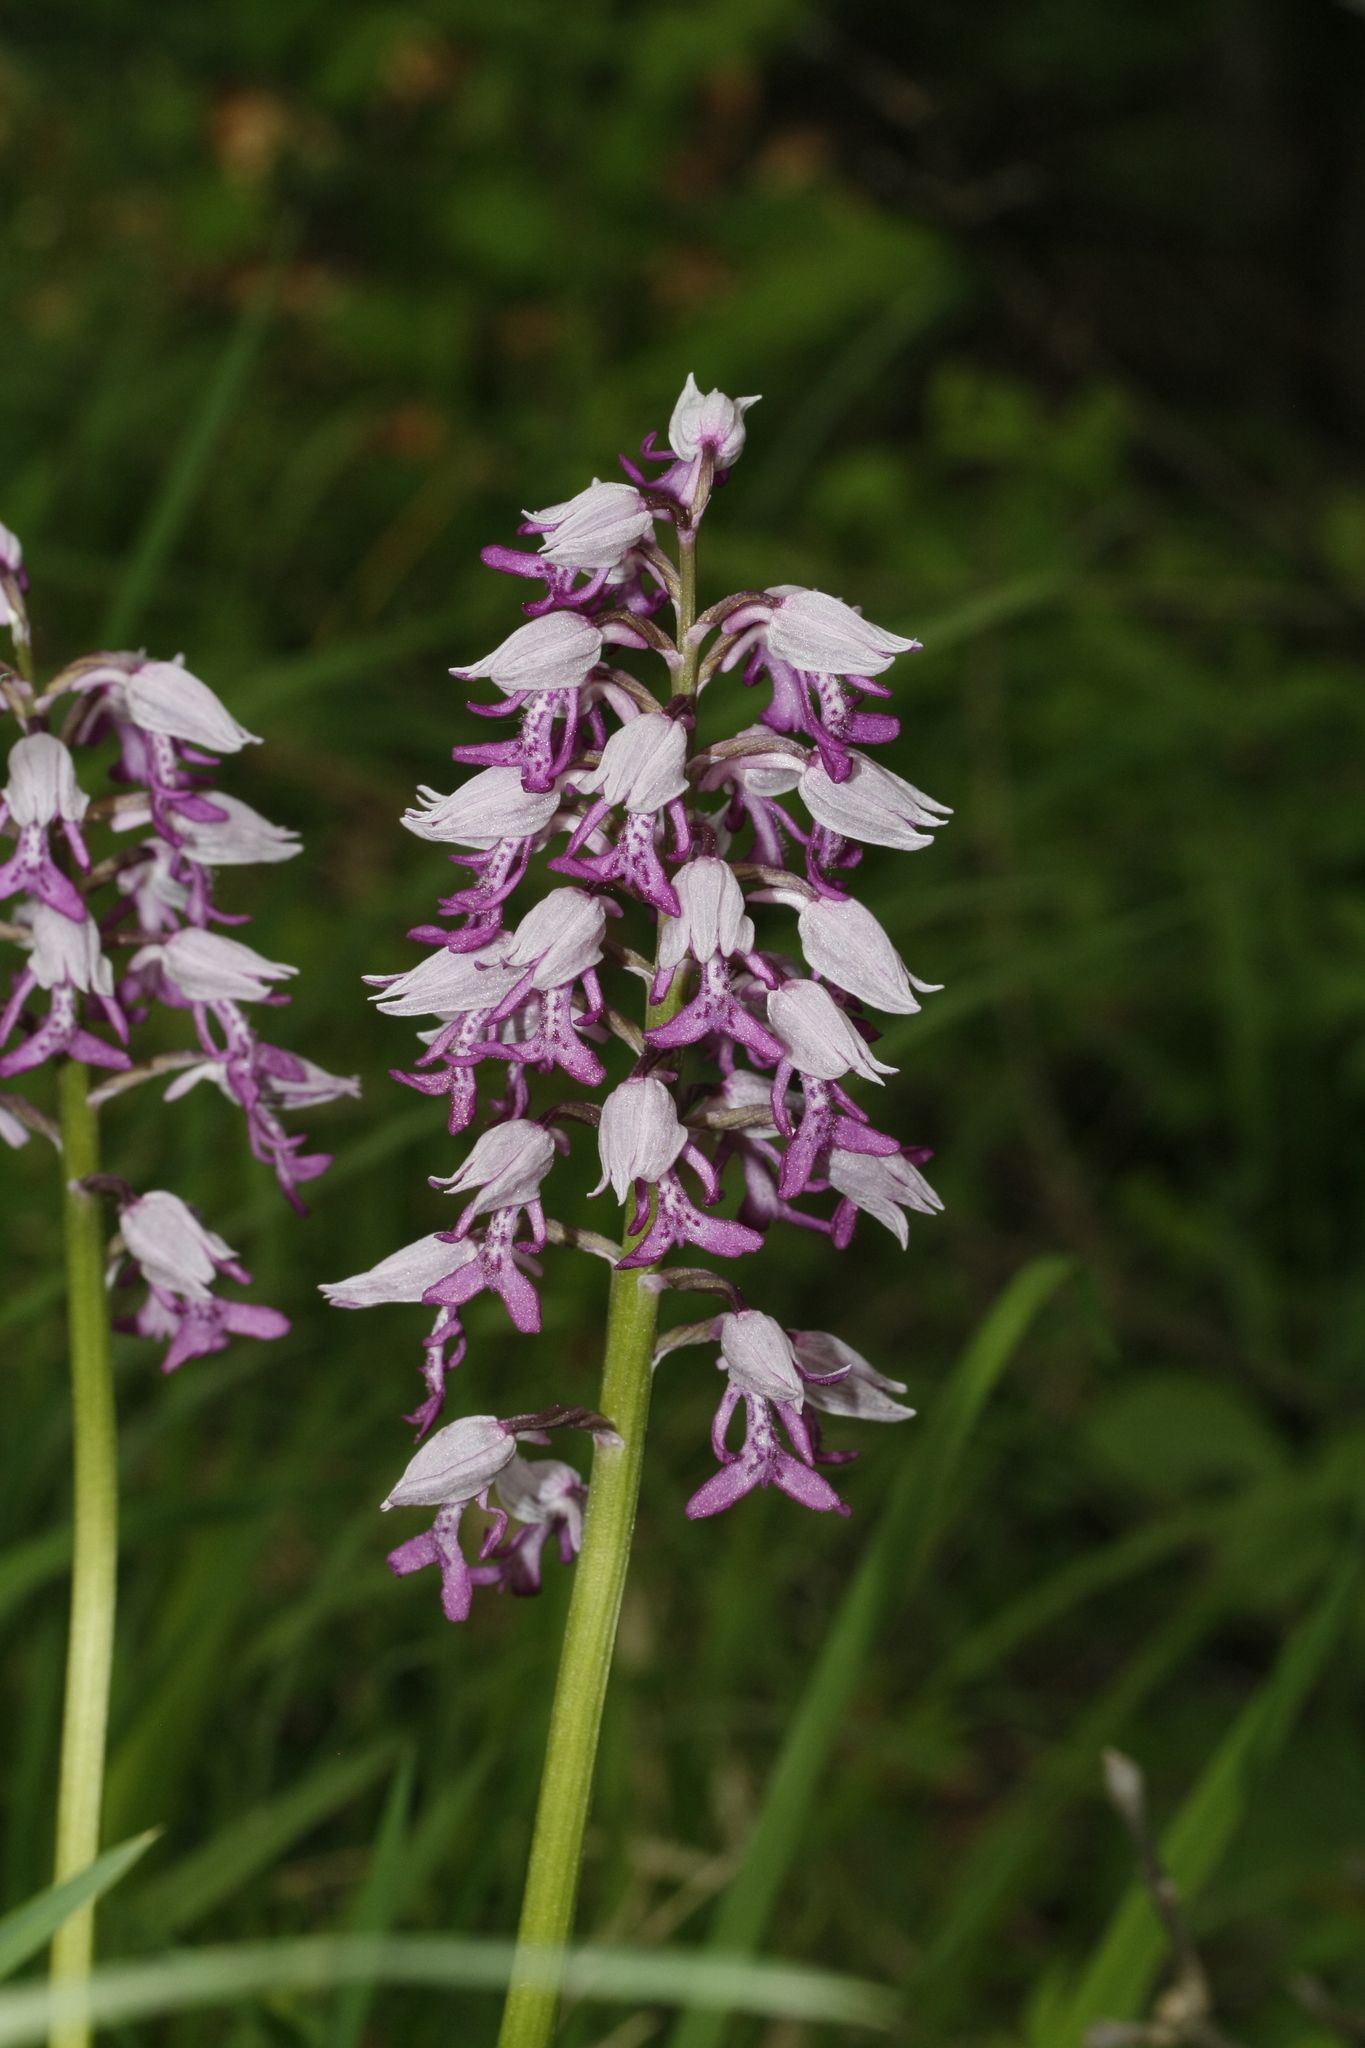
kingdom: Plantae
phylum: Tracheophyta
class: Liliopsida
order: Asparagales
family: Orchidaceae
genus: Orchis
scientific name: Orchis militaris
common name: Military orchid
